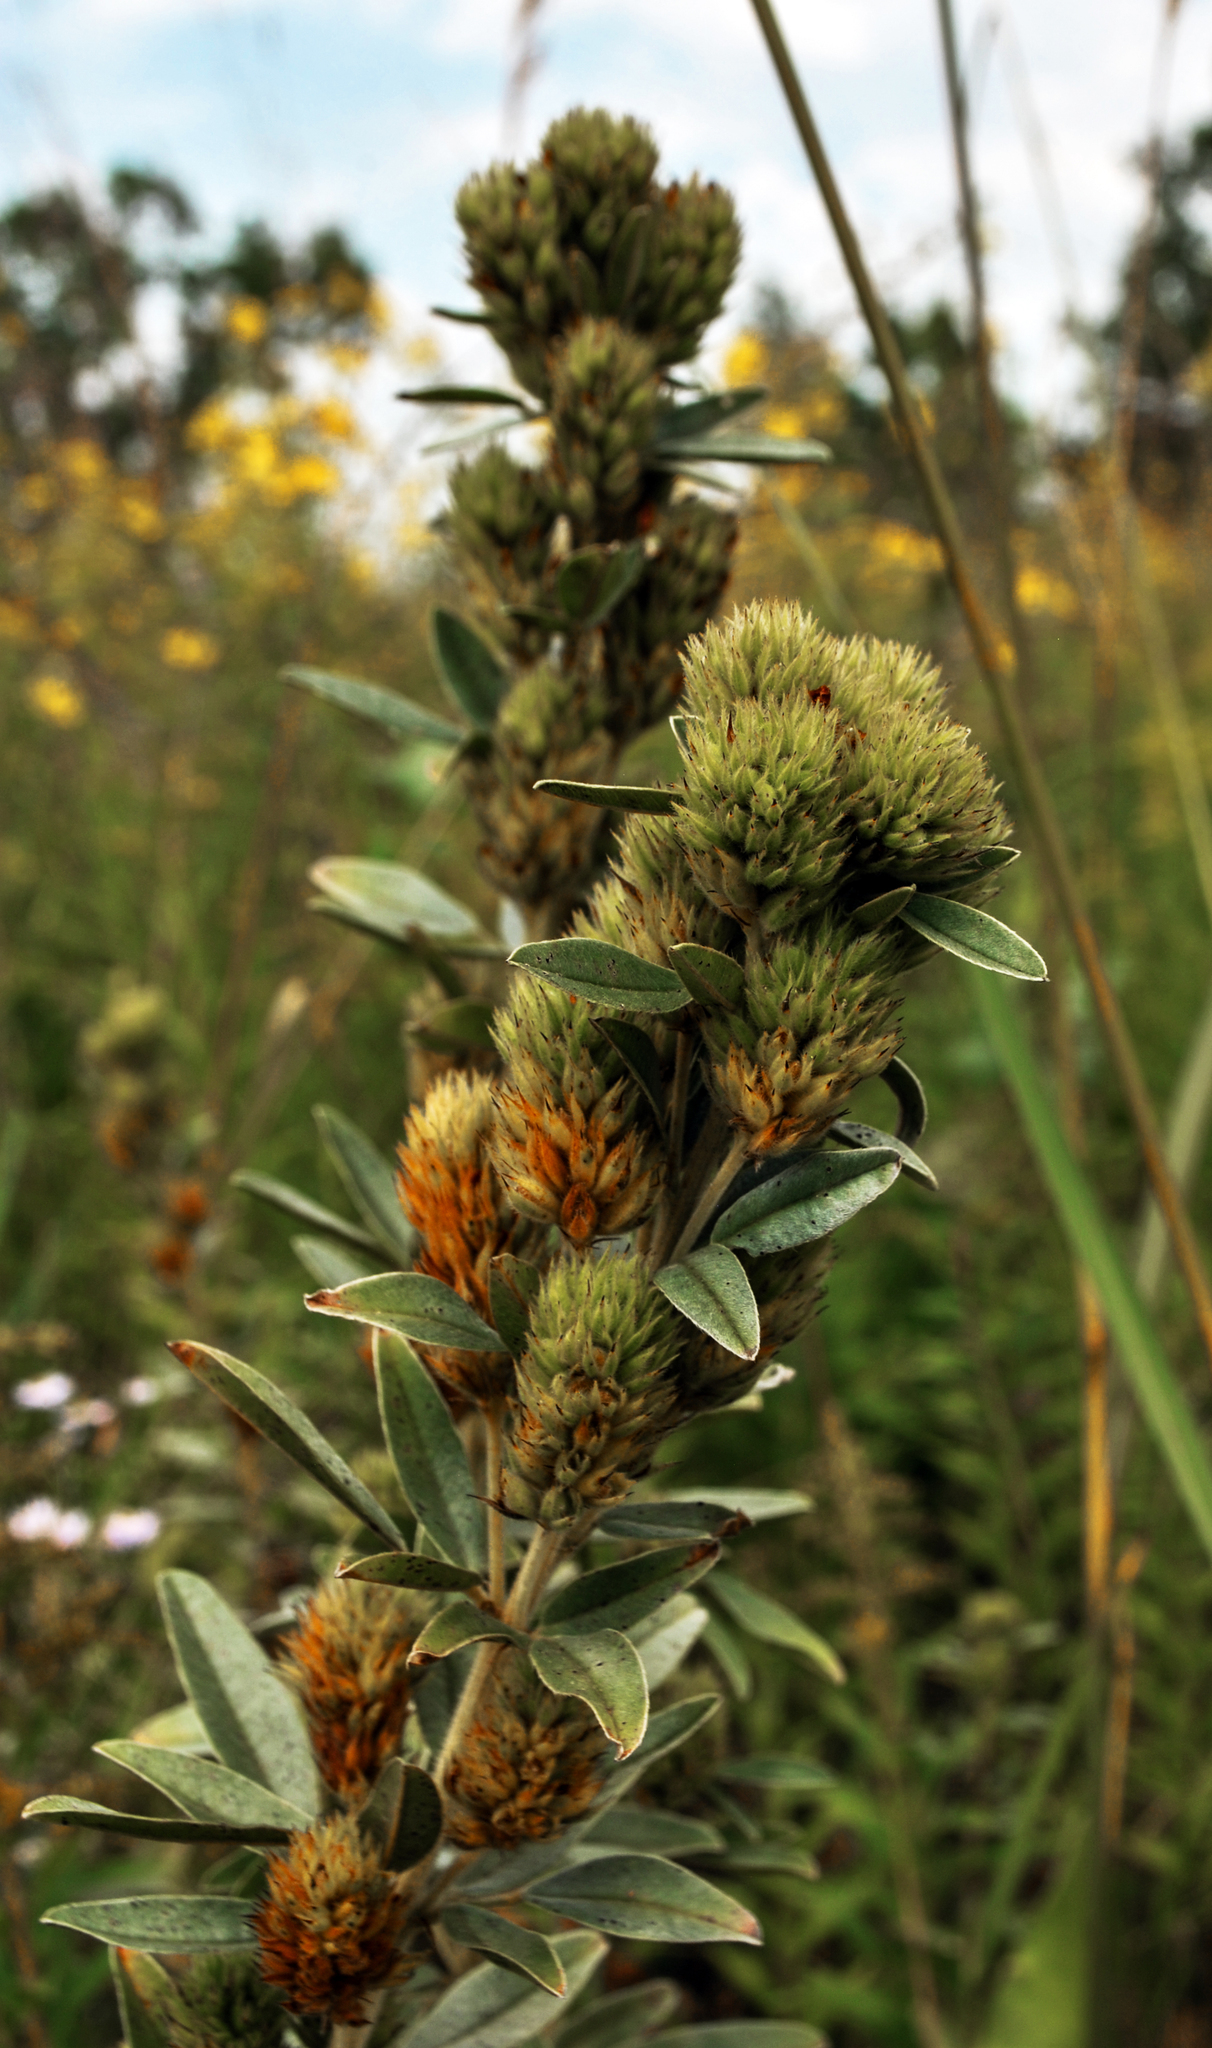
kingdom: Plantae
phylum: Tracheophyta
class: Magnoliopsida
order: Fabales
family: Fabaceae
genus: Lespedeza
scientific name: Lespedeza capitata
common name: Dusty clover
